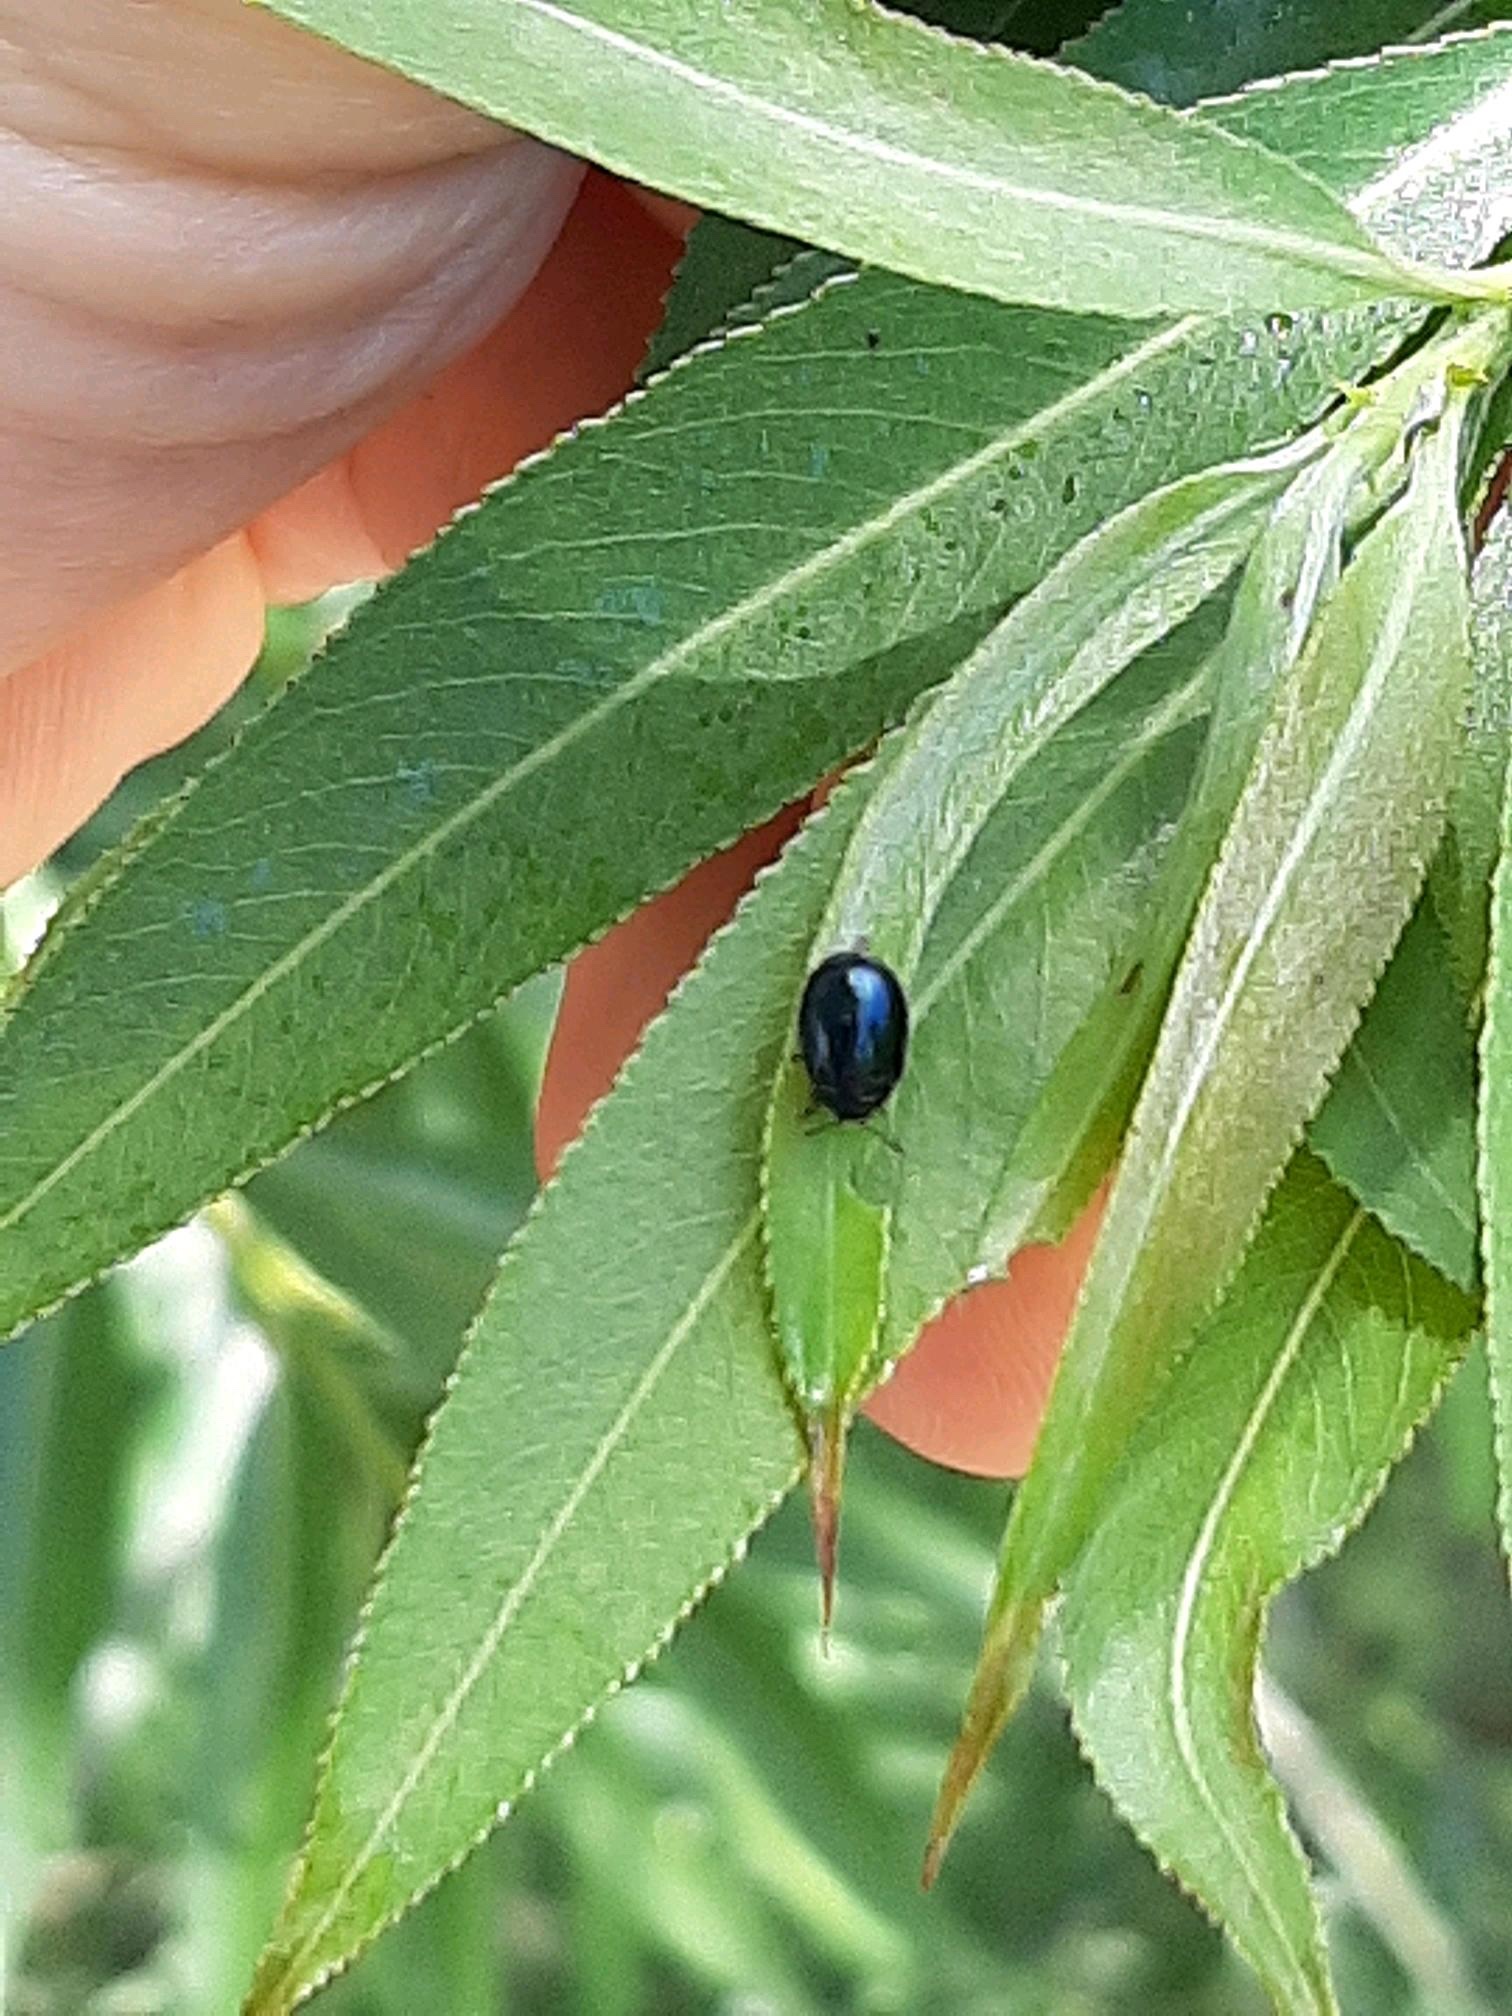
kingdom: Animalia
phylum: Arthropoda
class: Insecta
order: Coleoptera
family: Chrysomelidae
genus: Plagiodera
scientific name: Plagiodera versicolora
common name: Imported willow leaf beetle
